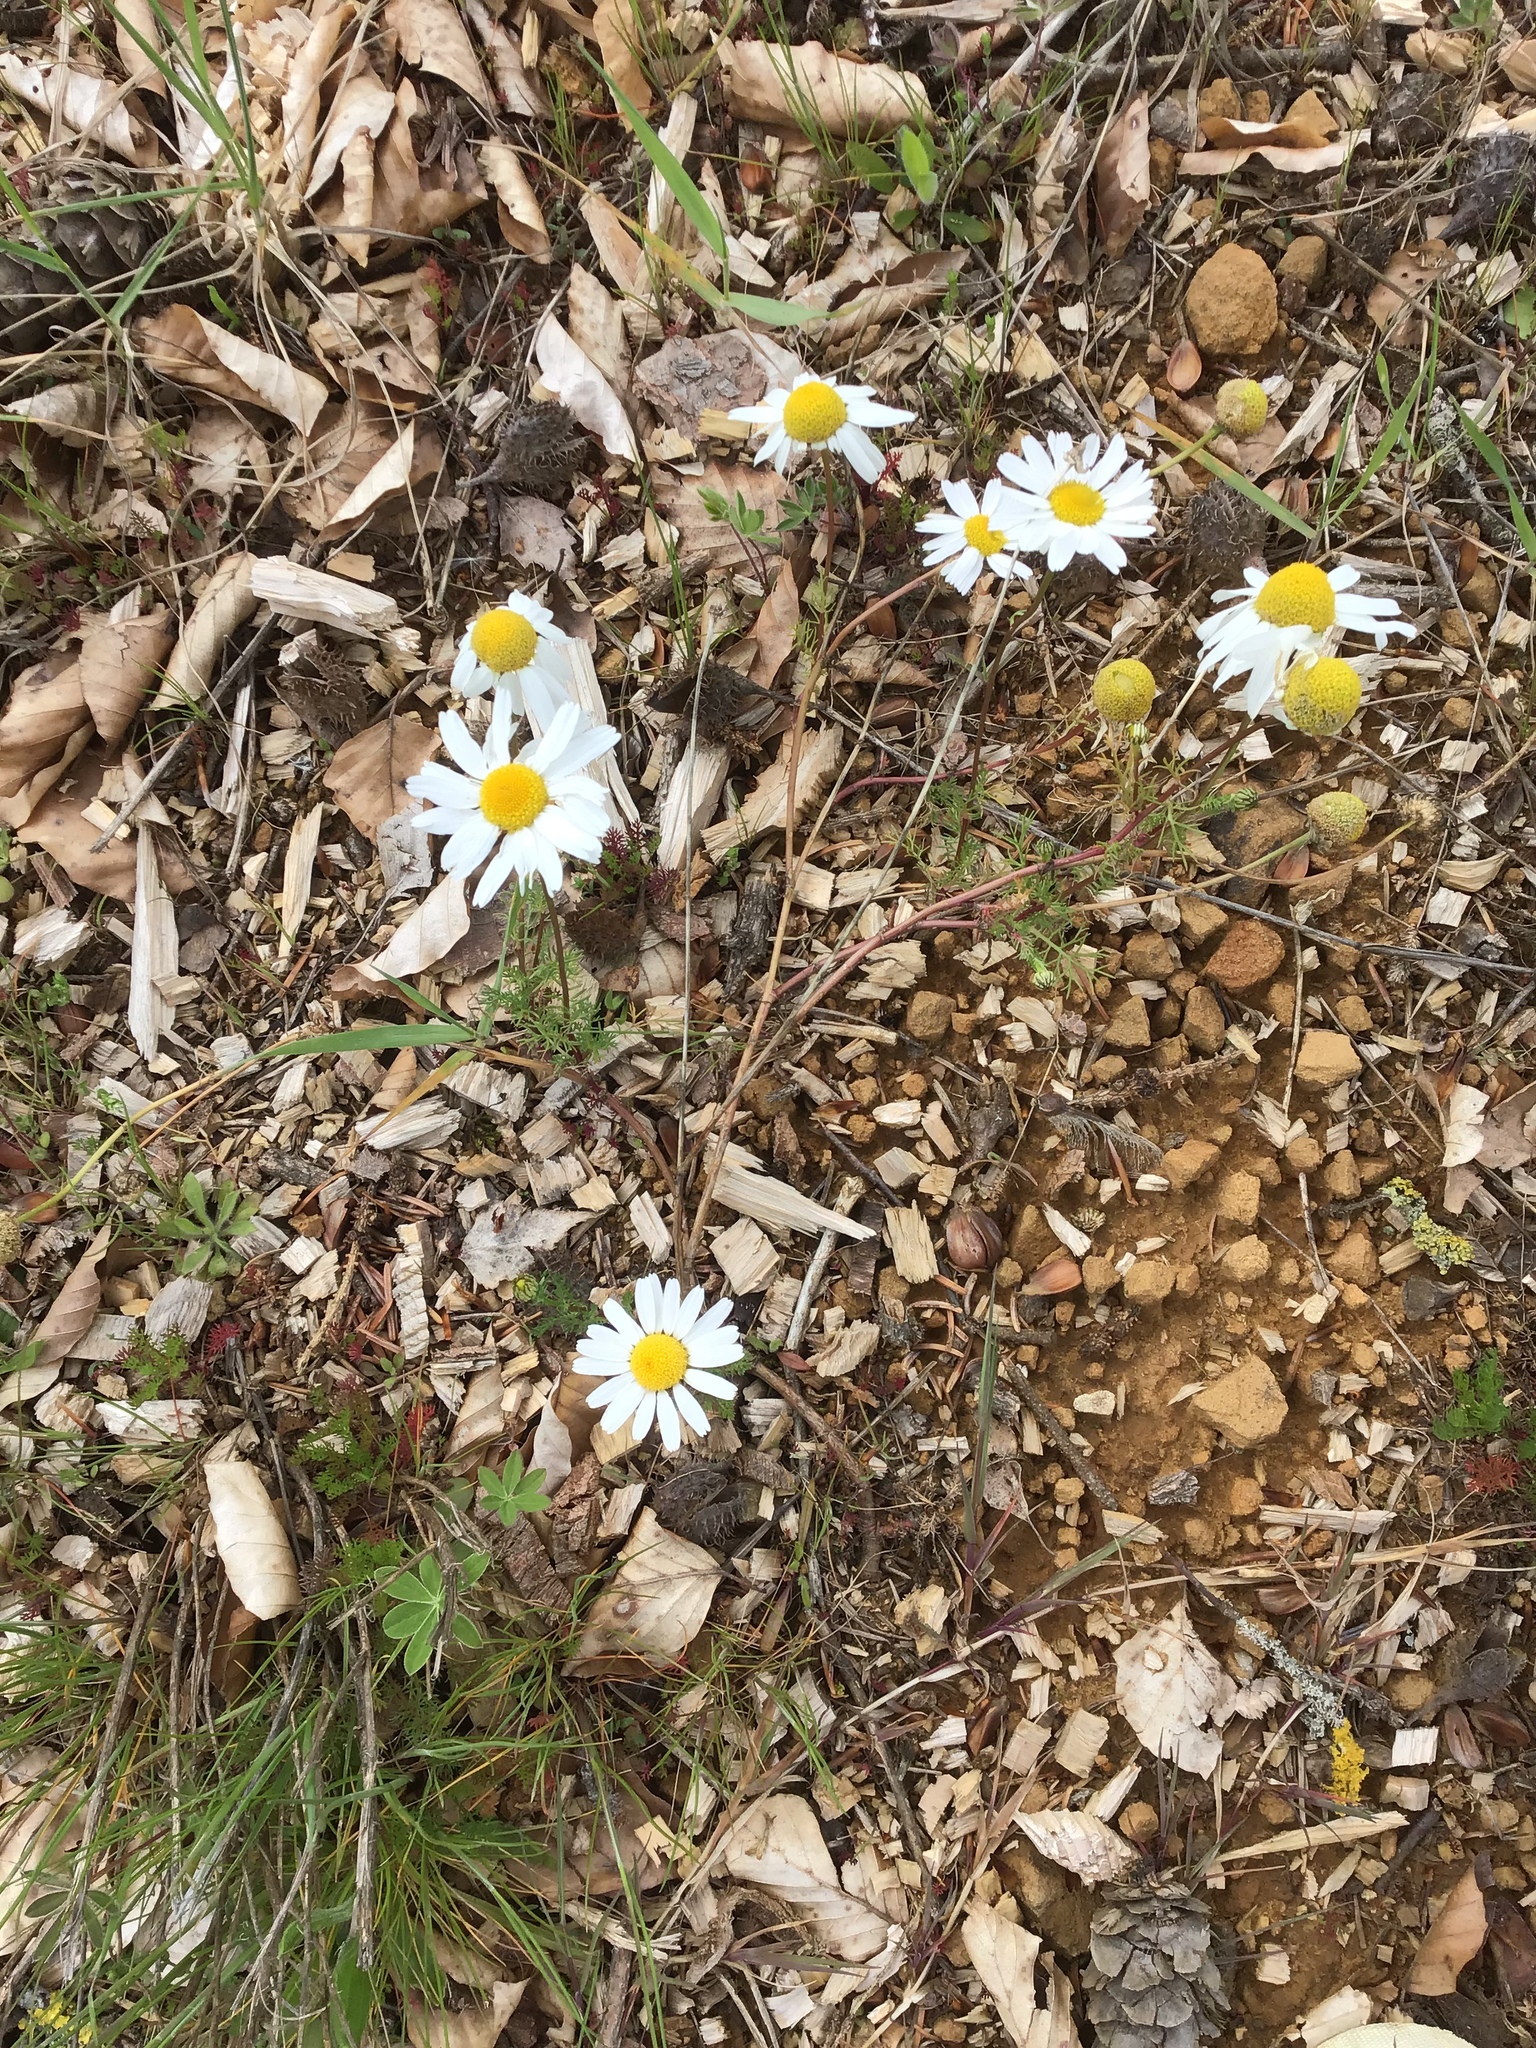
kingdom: Plantae
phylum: Tracheophyta
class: Magnoliopsida
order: Asterales
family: Asteraceae
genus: Tripleurospermum
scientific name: Tripleurospermum inodorum
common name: Scentless mayweed
